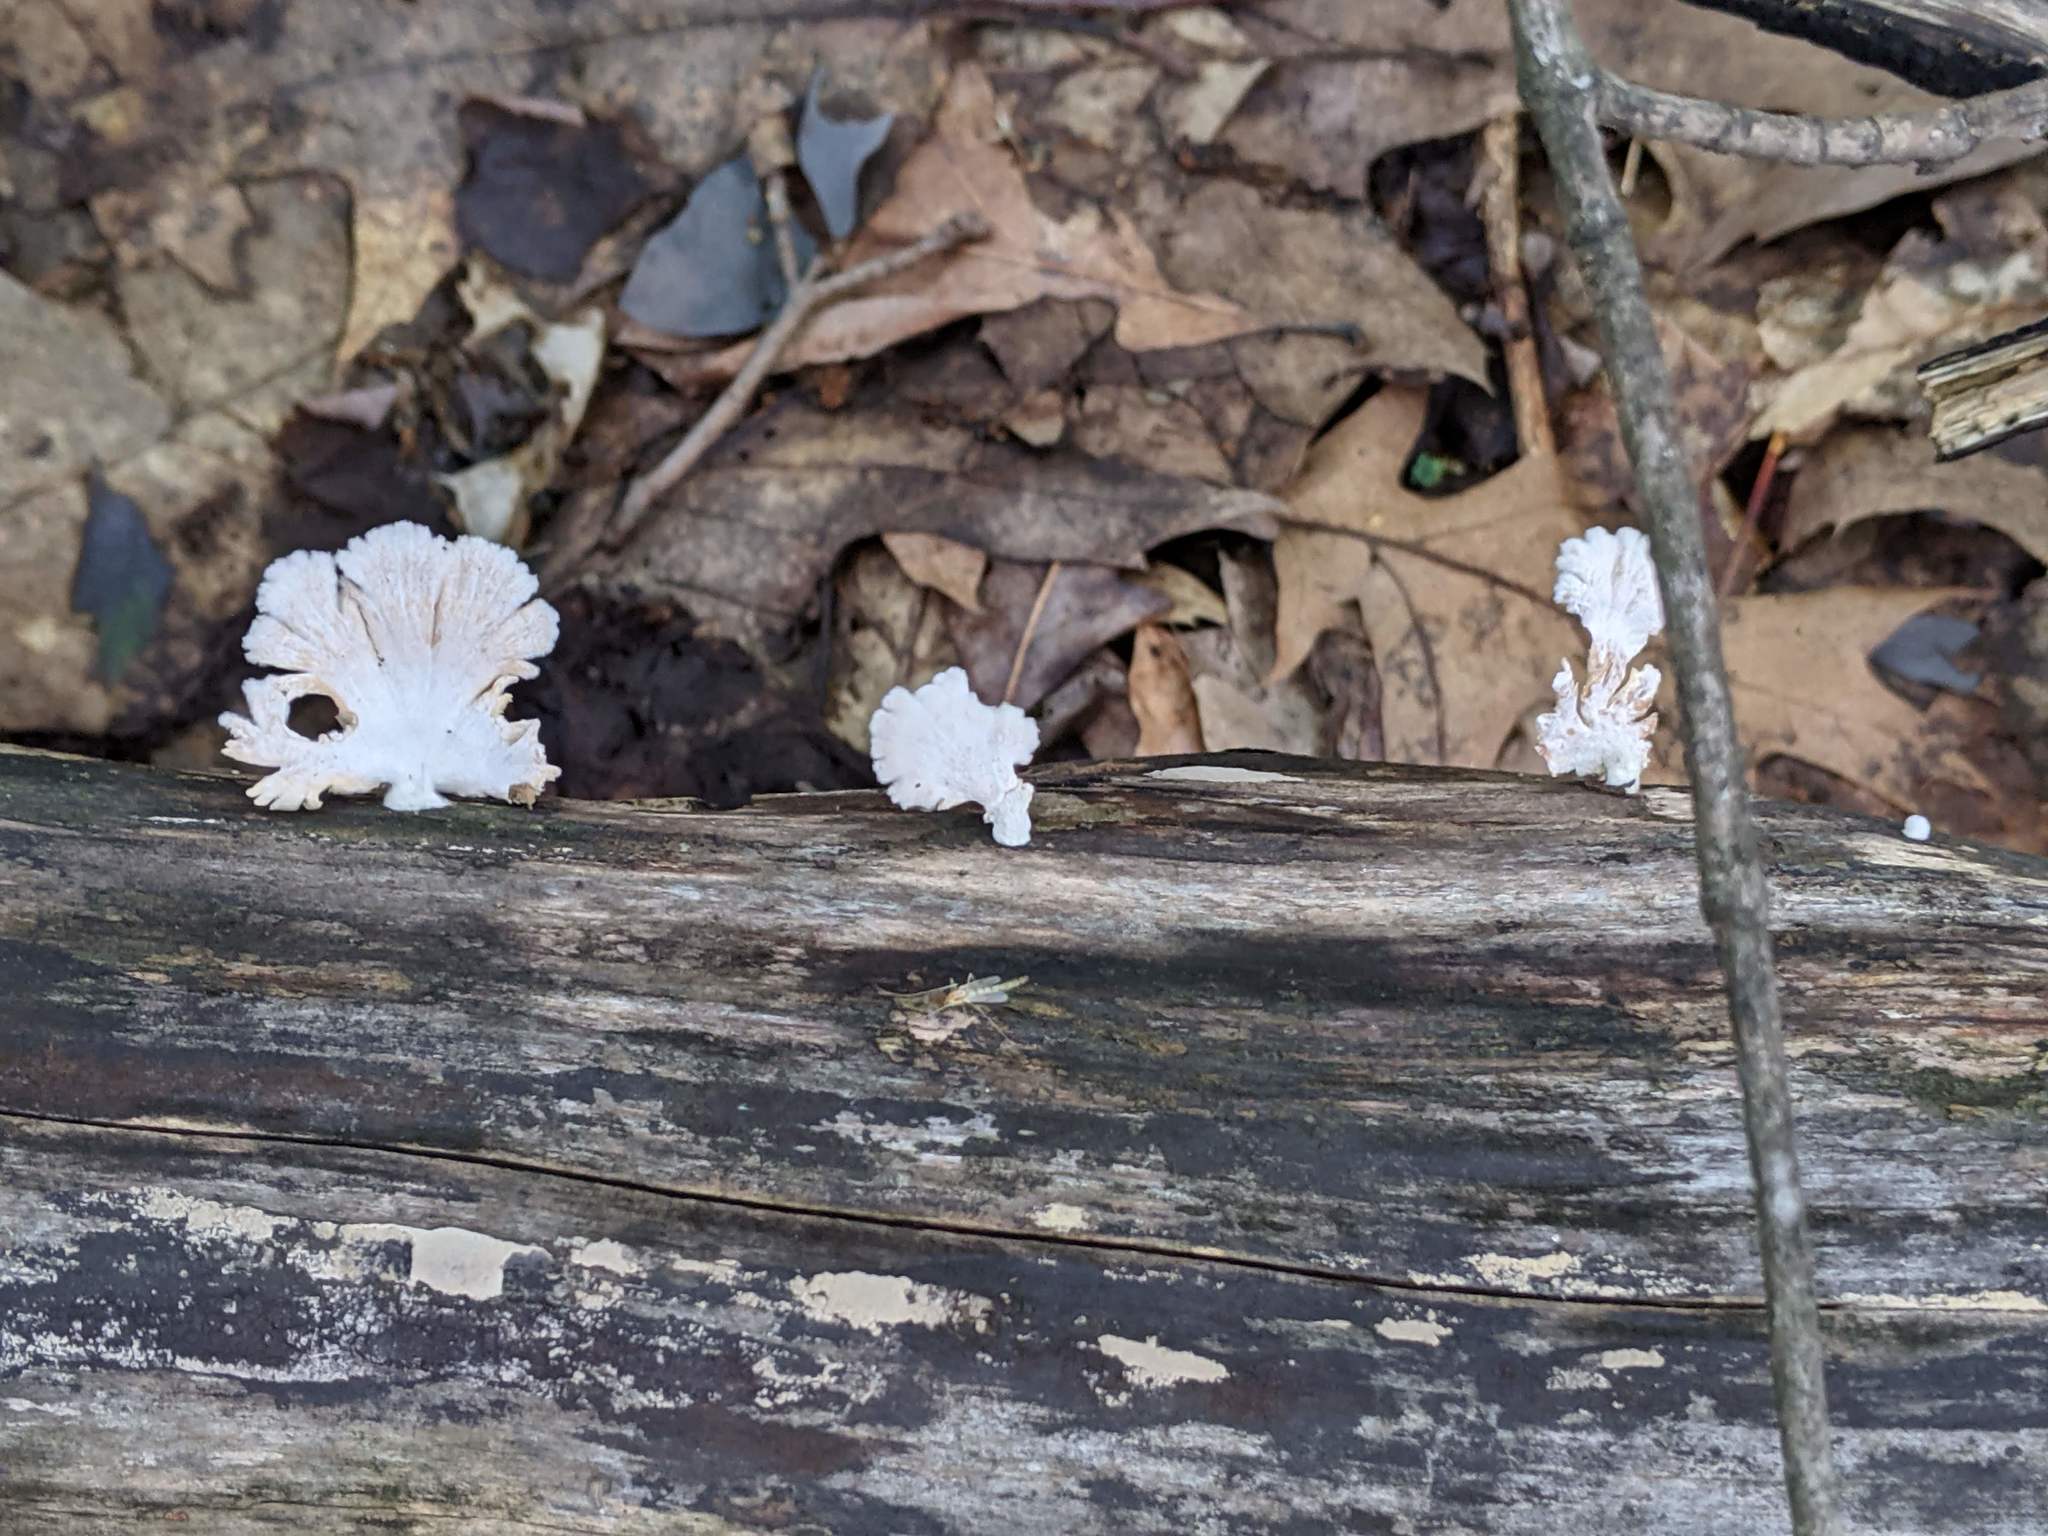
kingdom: Fungi
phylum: Basidiomycota
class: Agaricomycetes
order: Agaricales
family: Schizophyllaceae
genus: Schizophyllum
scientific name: Schizophyllum commune
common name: Common porecrust
